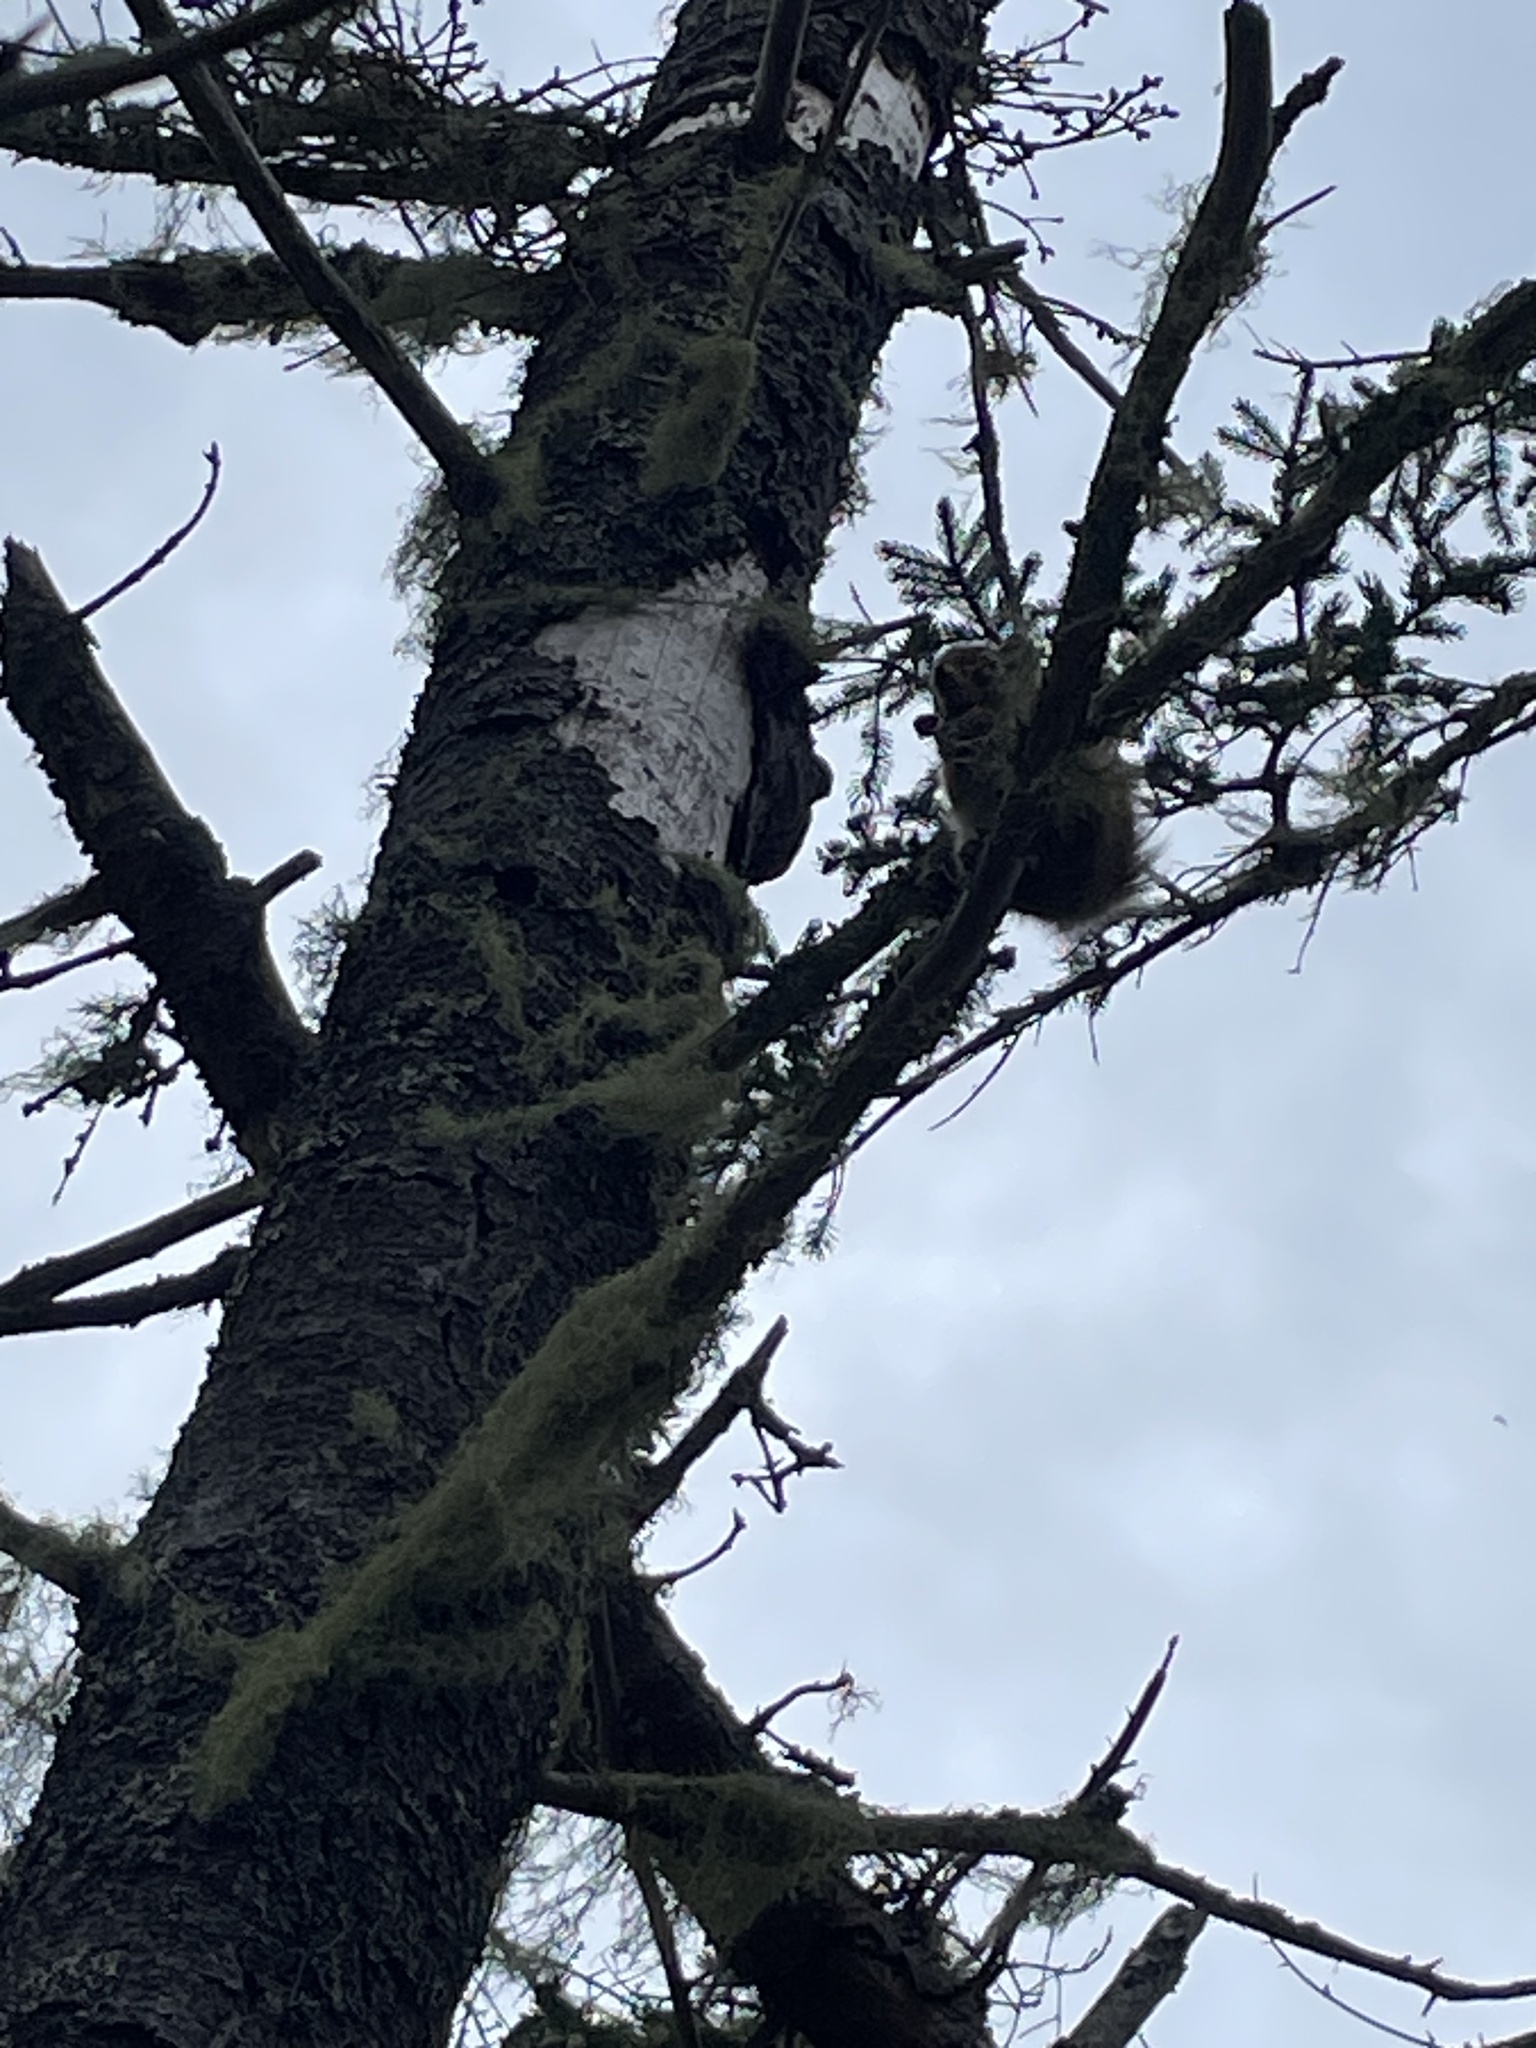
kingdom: Animalia
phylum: Chordata
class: Mammalia
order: Rodentia
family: Sciuridae
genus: Tamiasciurus
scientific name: Tamiasciurus hudsonicus
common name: Red squirrel
